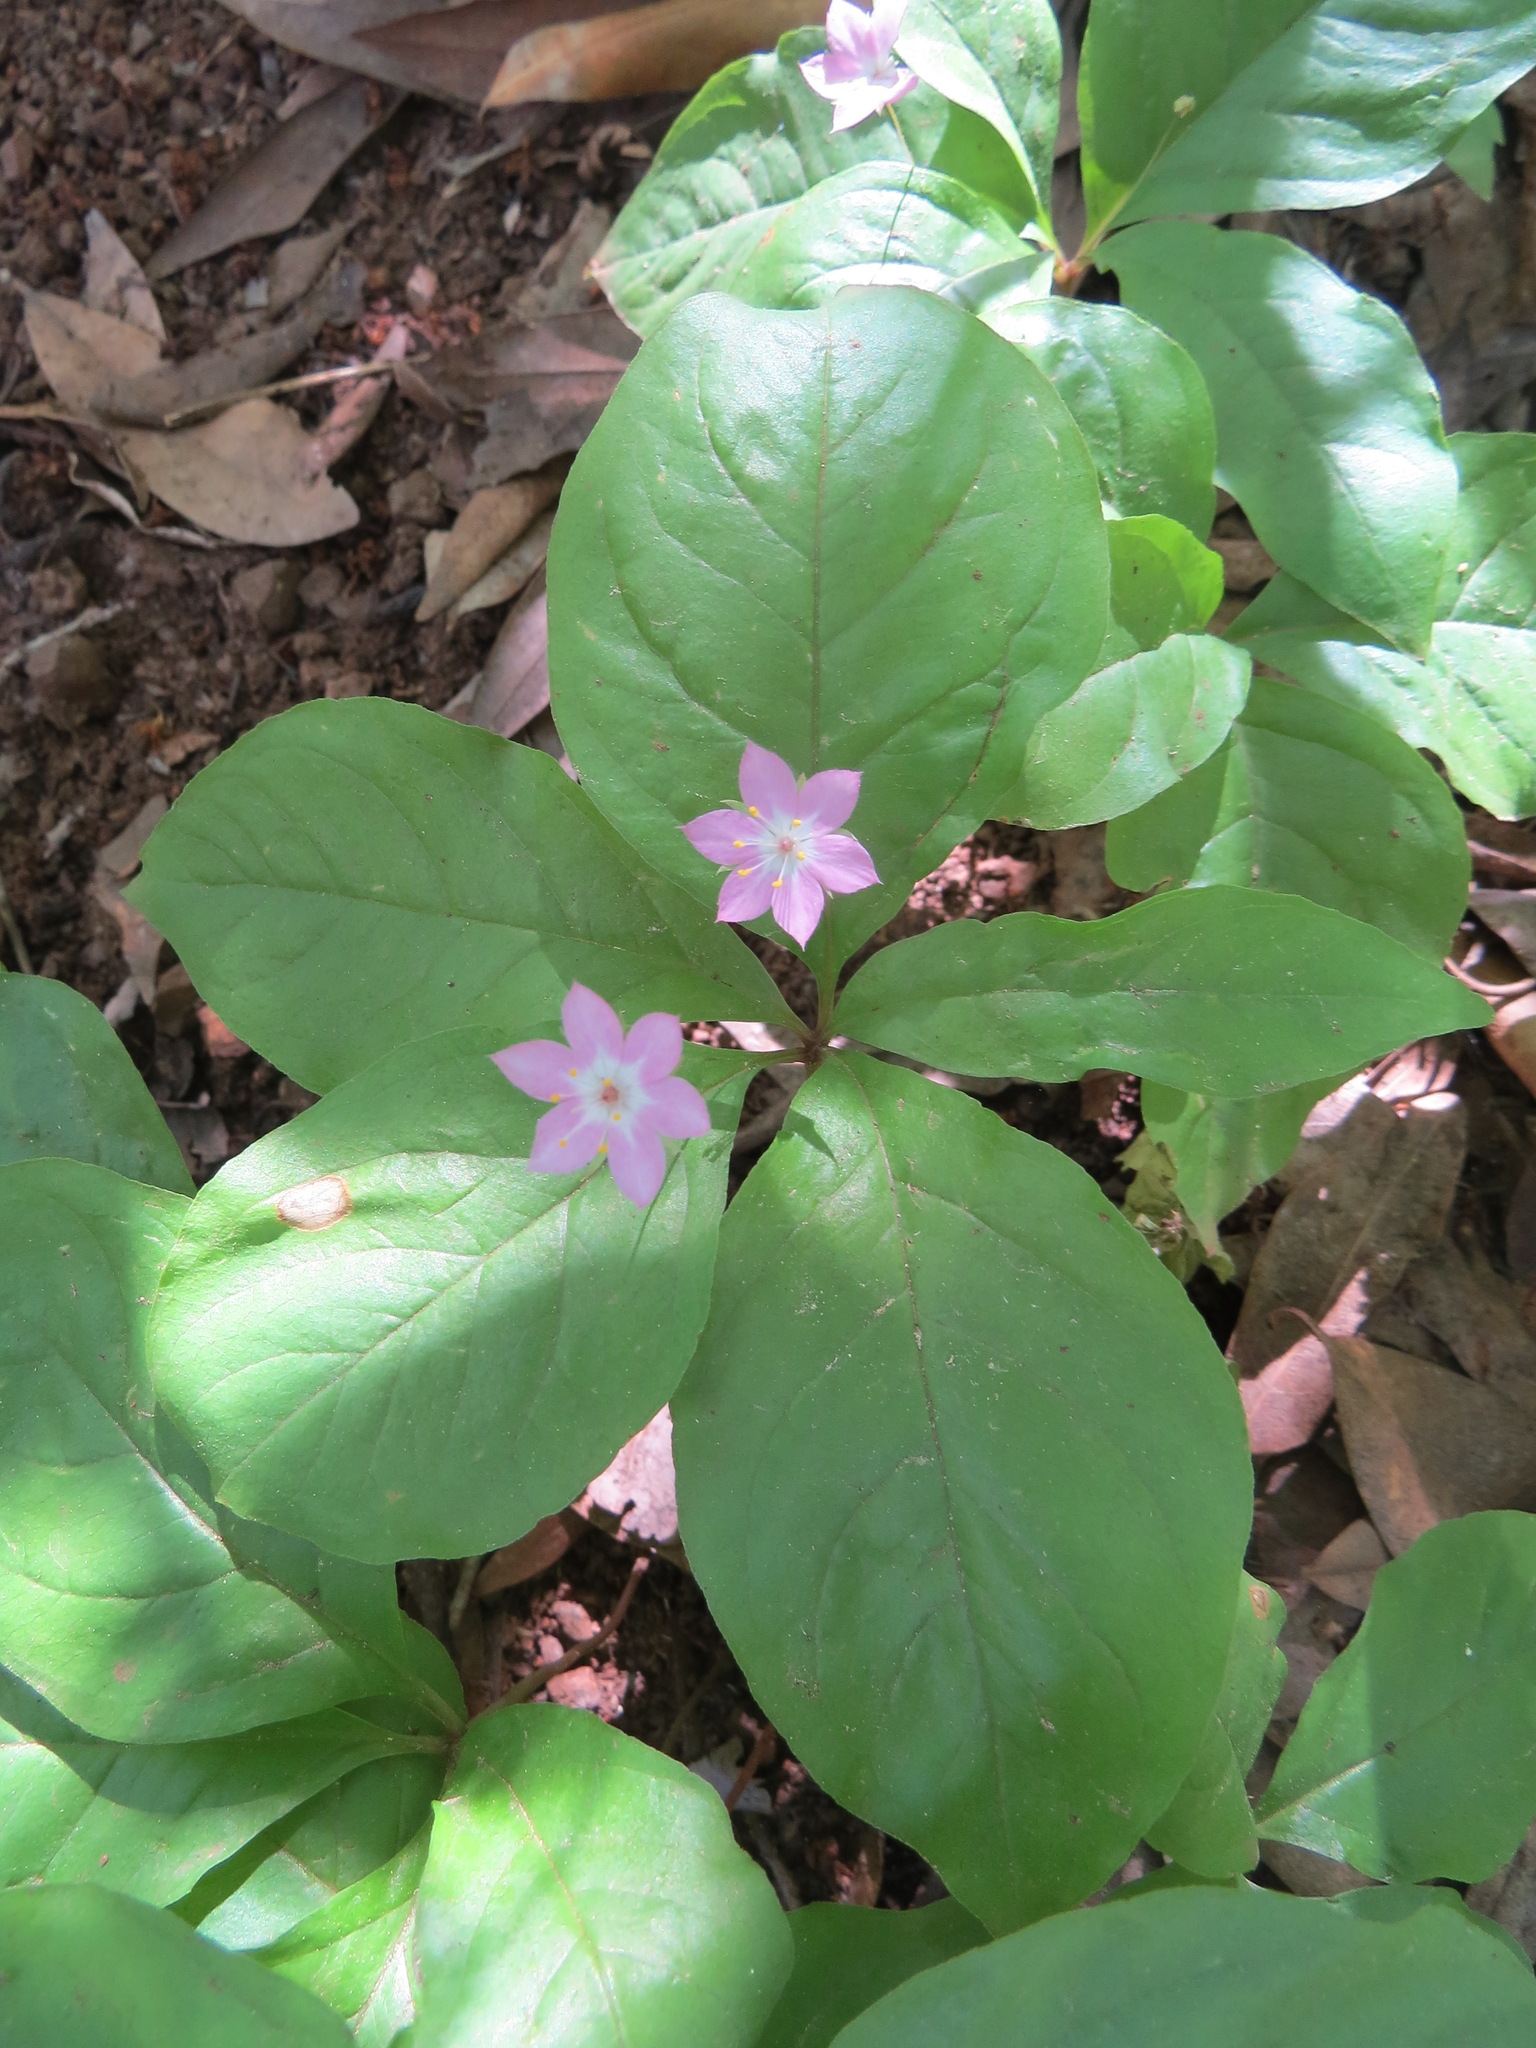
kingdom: Plantae
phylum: Tracheophyta
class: Magnoliopsida
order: Ericales
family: Primulaceae
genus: Lysimachia
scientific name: Lysimachia latifolia
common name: Pacific starflower
